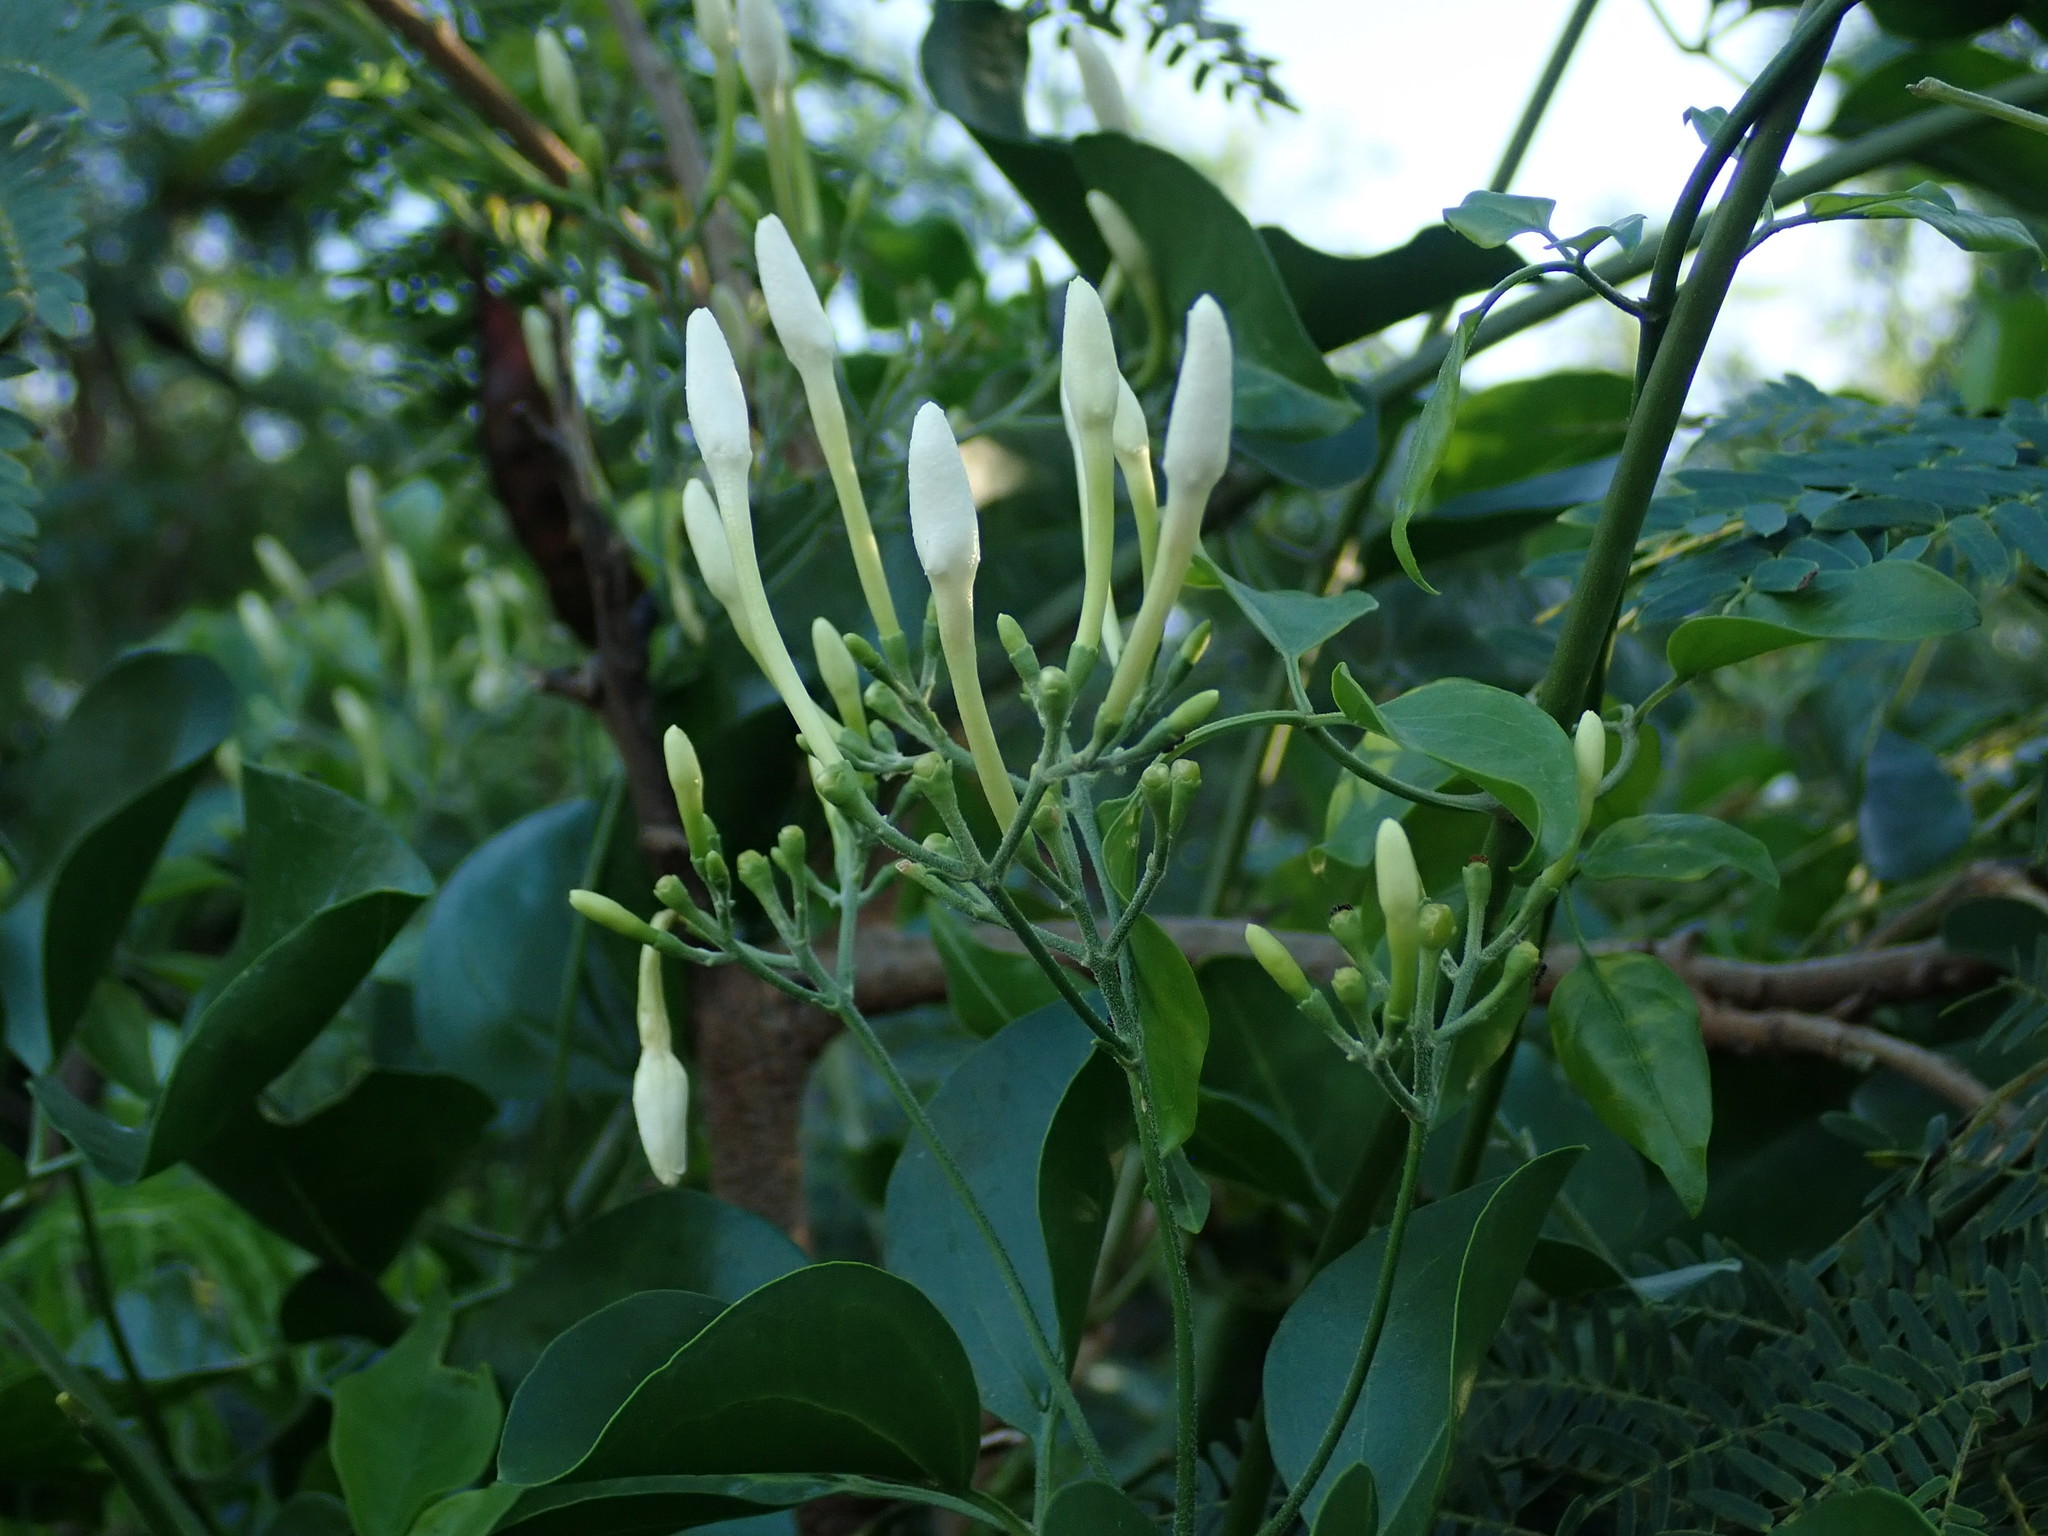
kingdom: Plantae
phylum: Tracheophyta
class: Magnoliopsida
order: Lamiales
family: Oleaceae
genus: Jasminum
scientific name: Jasminum fluminense
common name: Brazilian jasmine
